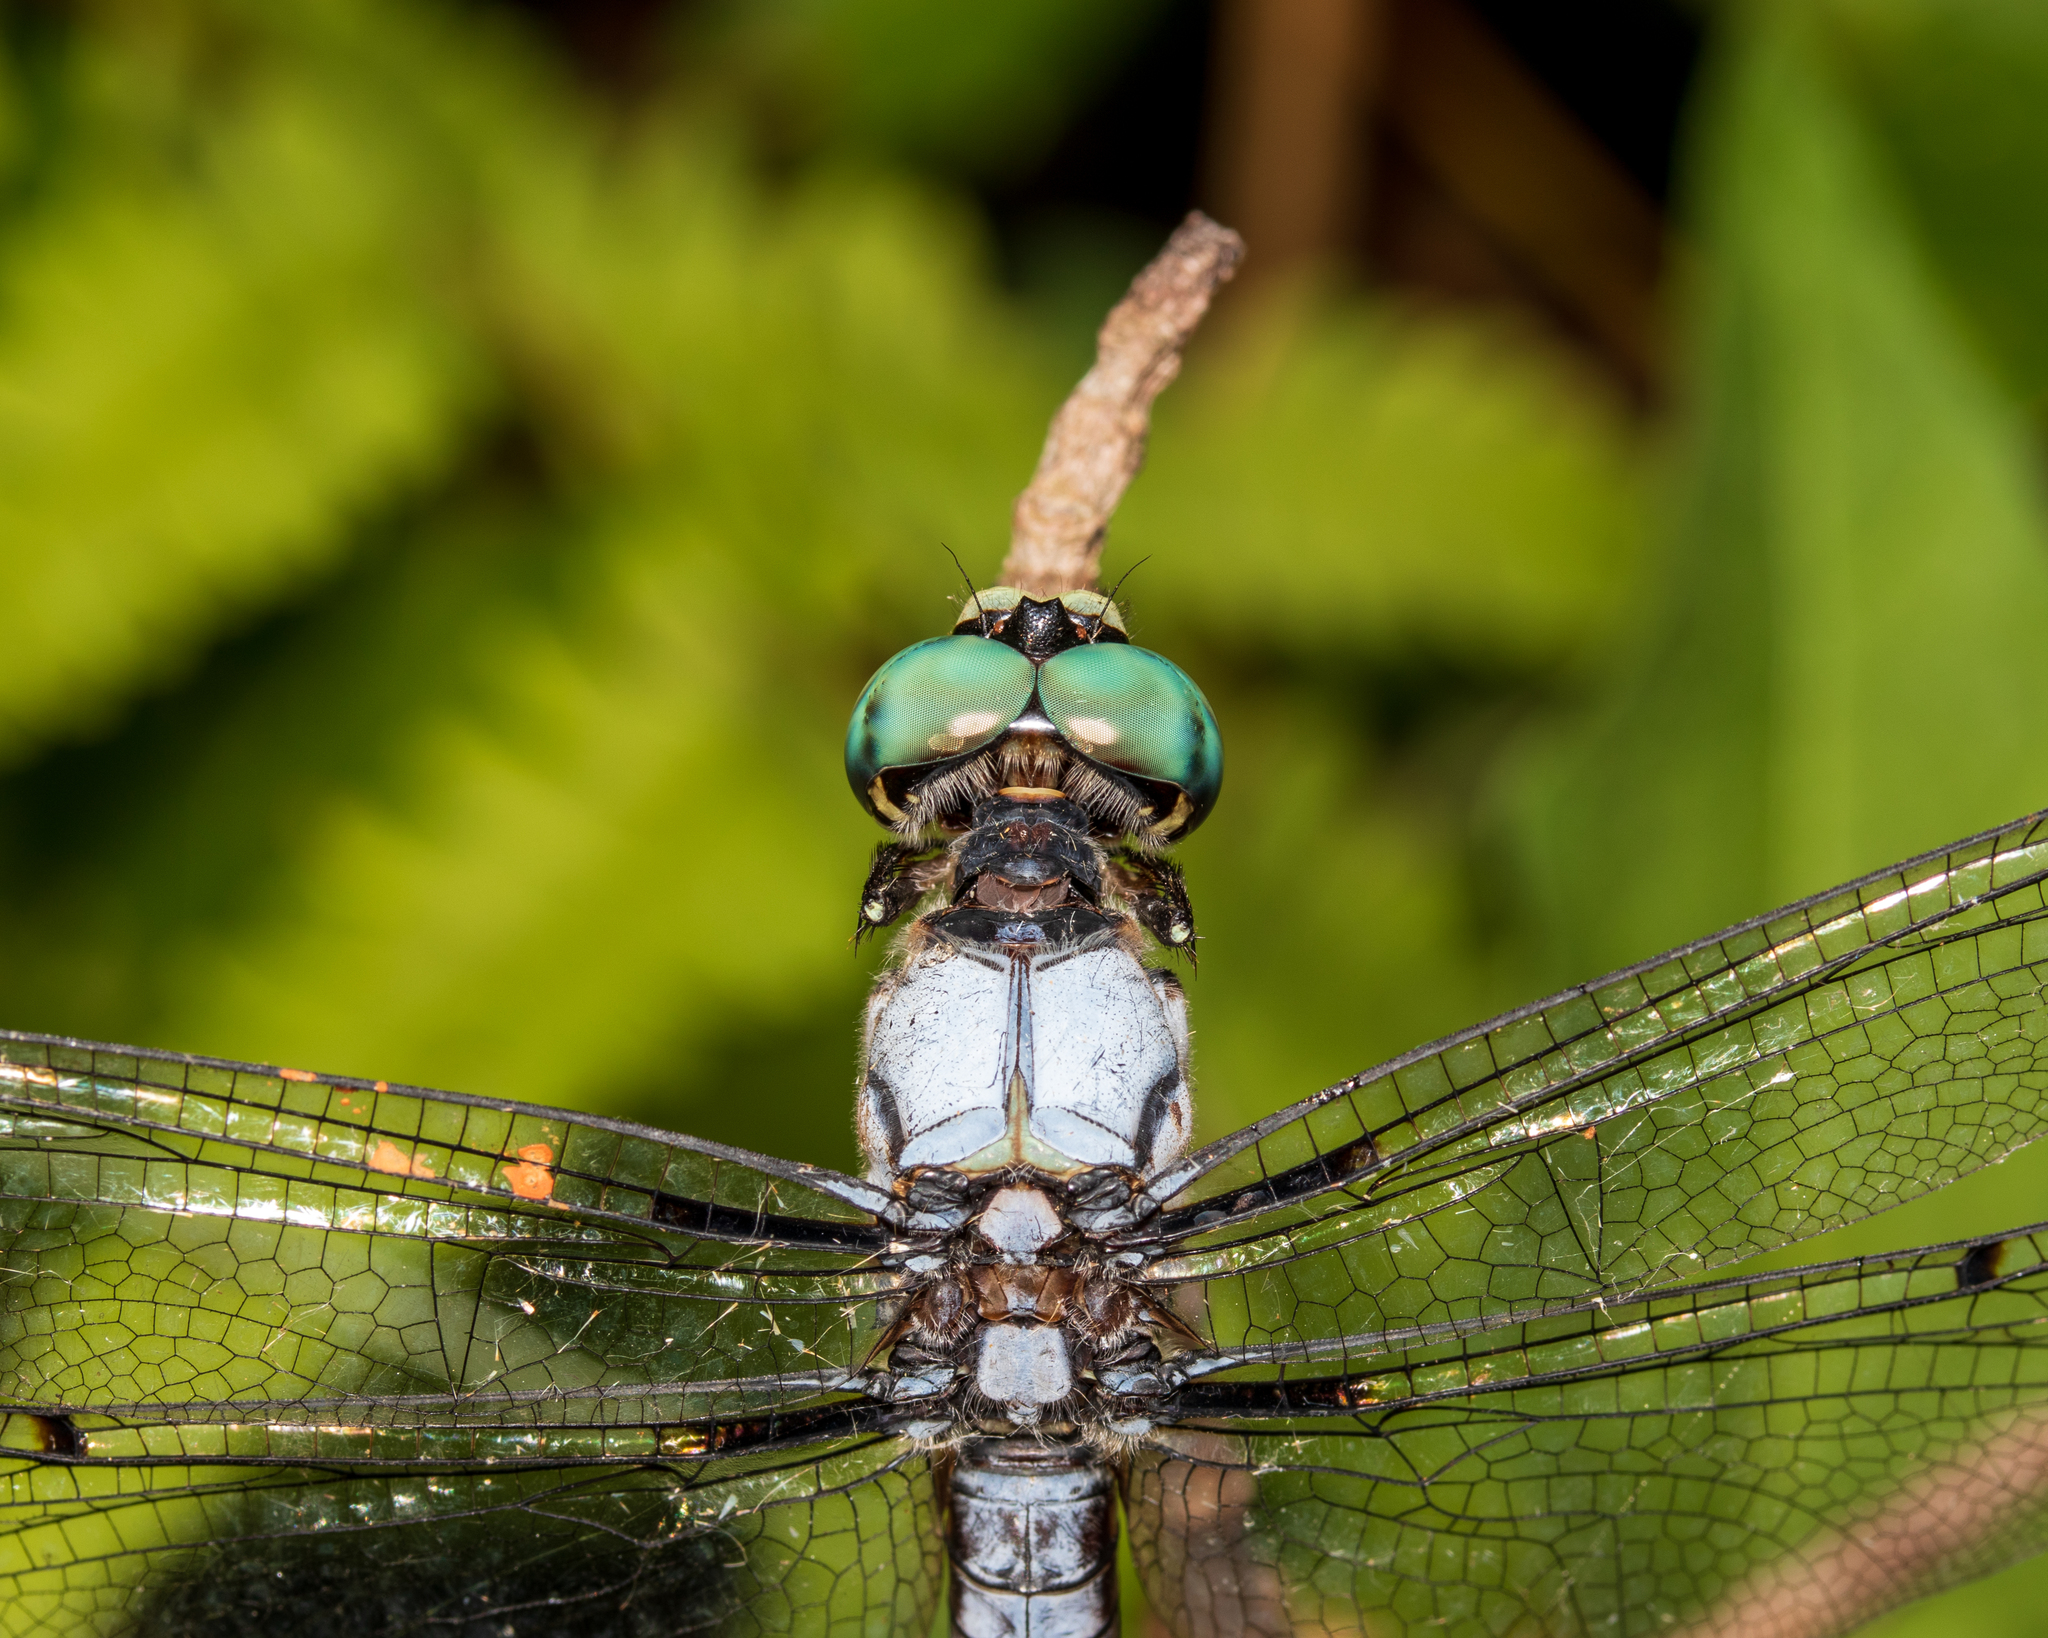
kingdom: Animalia
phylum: Arthropoda
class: Insecta
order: Odonata
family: Libellulidae
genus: Libellula
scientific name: Libellula vibrans
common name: Great blue skimmer
